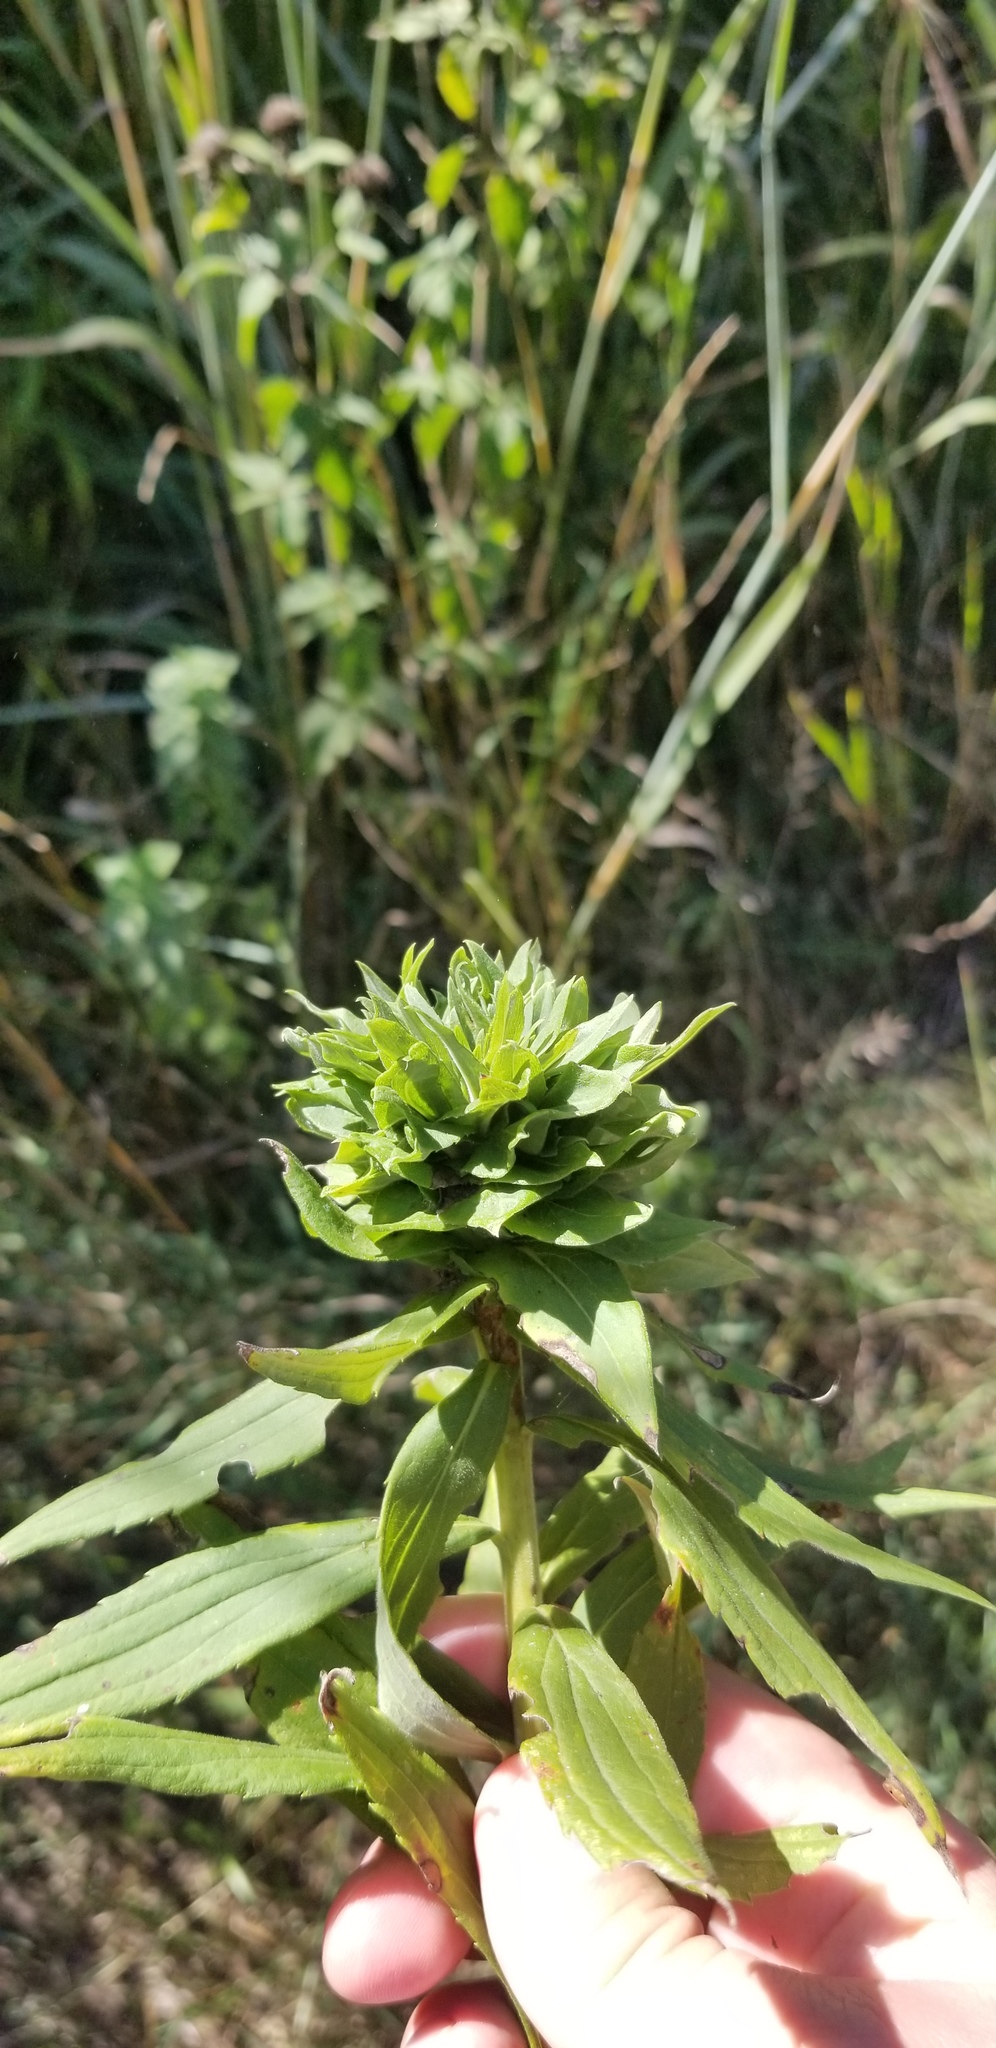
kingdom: Animalia
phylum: Arthropoda
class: Insecta
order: Diptera
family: Cecidomyiidae
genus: Rhopalomyia
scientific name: Rhopalomyia solidaginis
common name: Goldenrod bunch gall midge
